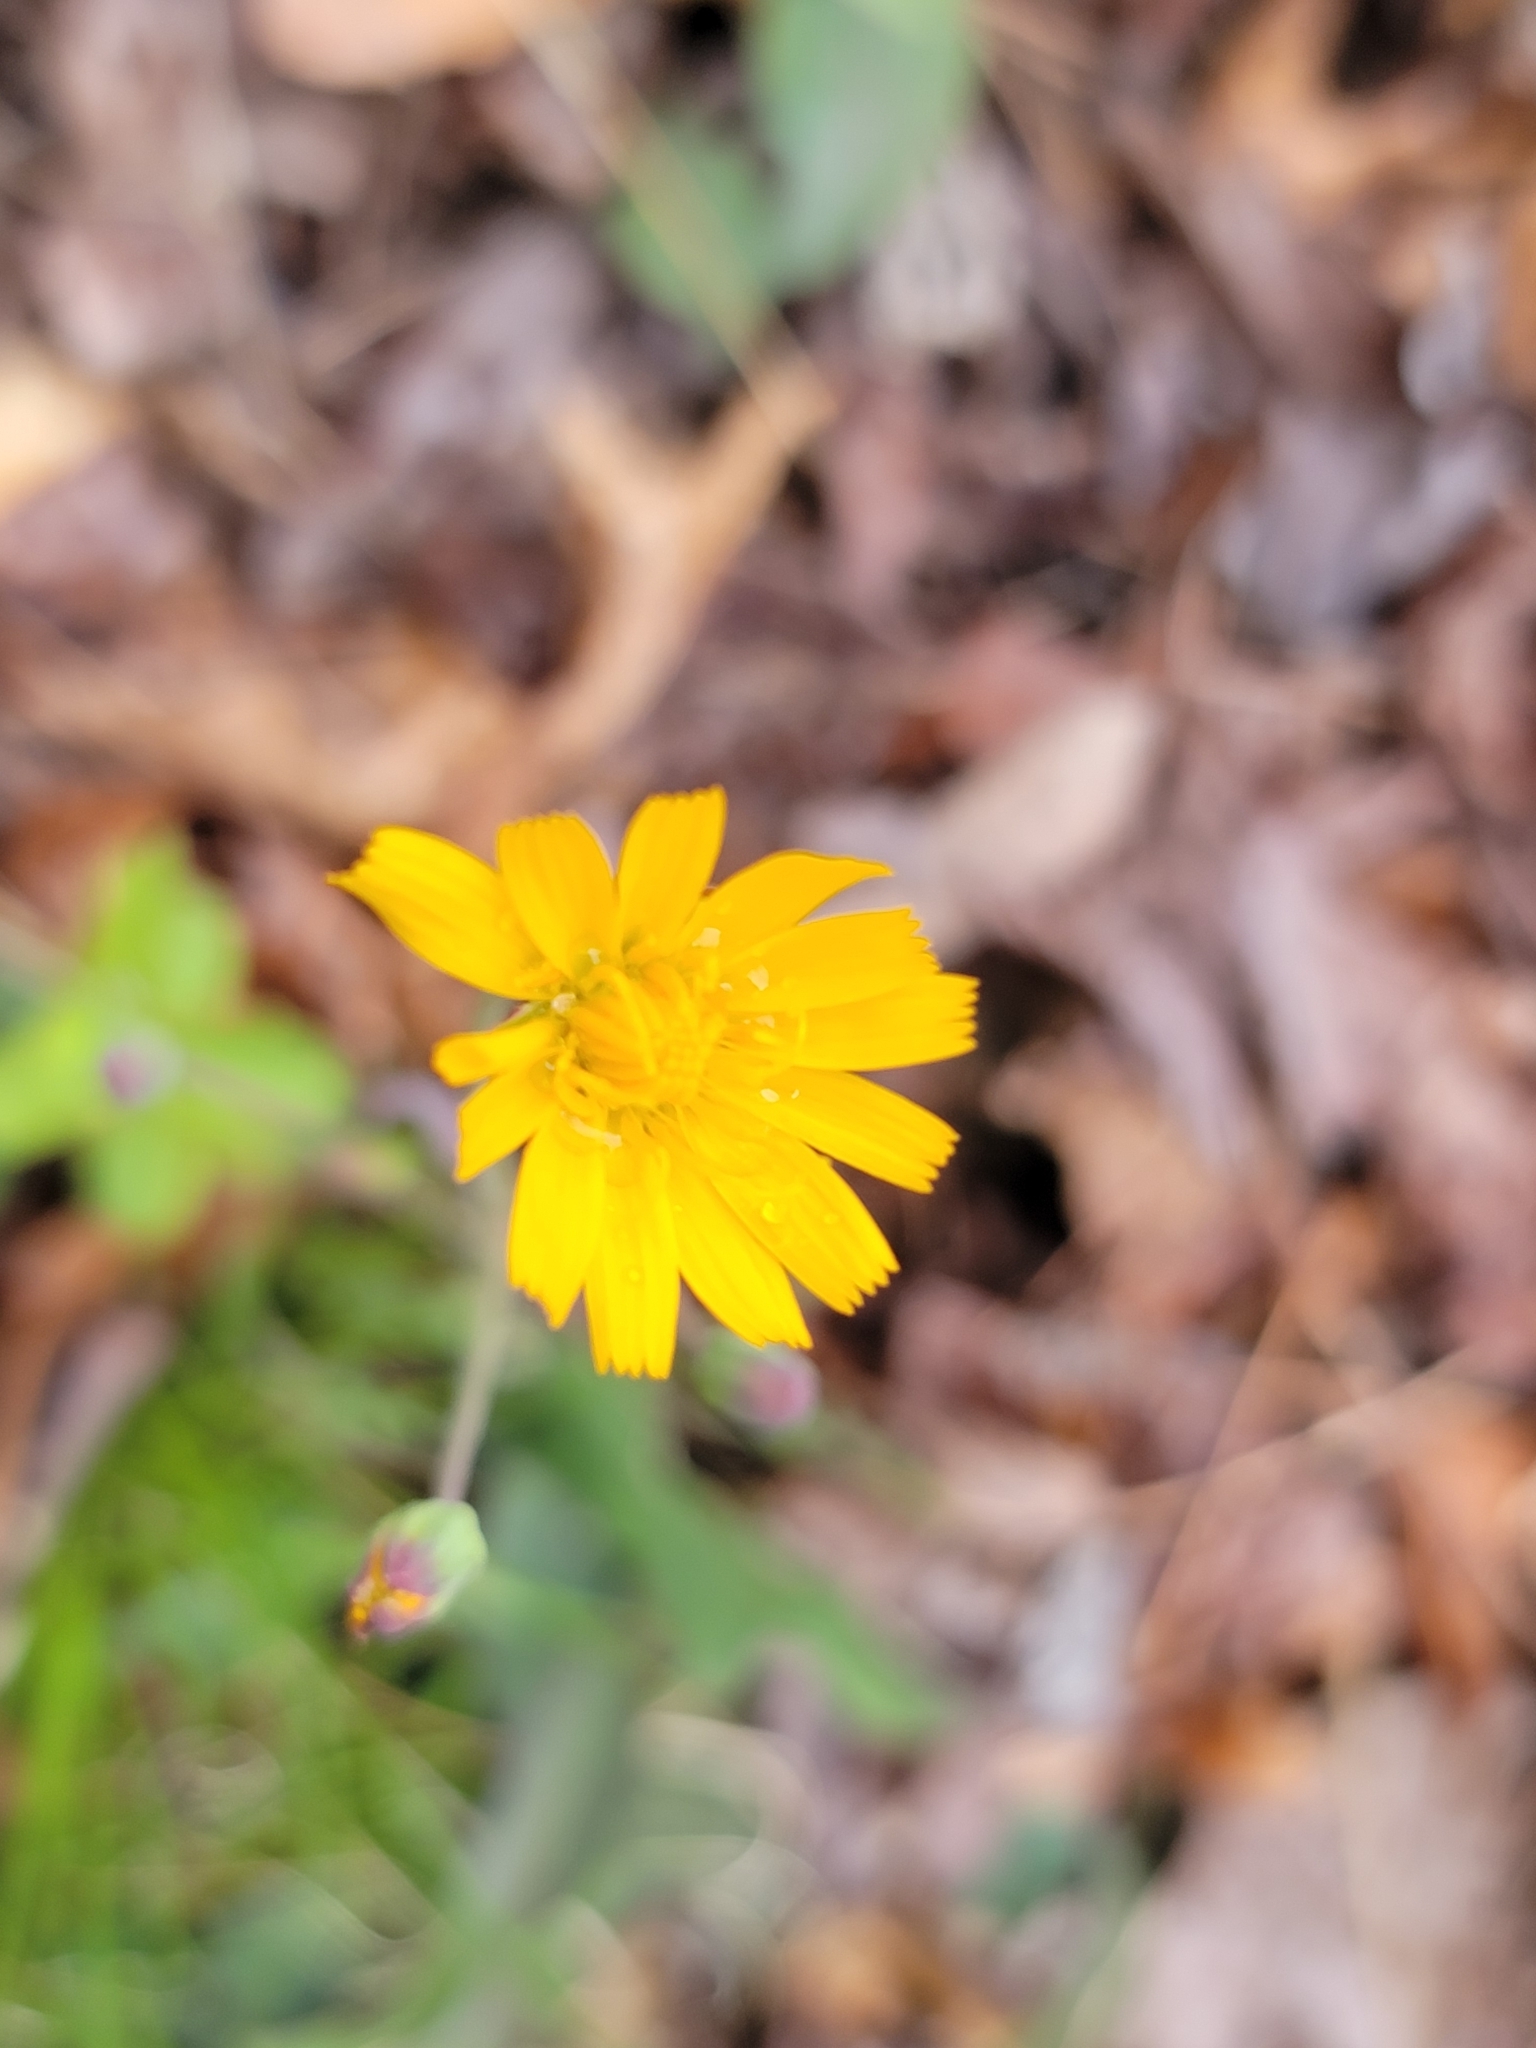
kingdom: Plantae
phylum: Tracheophyta
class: Magnoliopsida
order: Asterales
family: Asteraceae
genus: Krigia
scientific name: Krigia biflora
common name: Orange dwarf-dandelion
